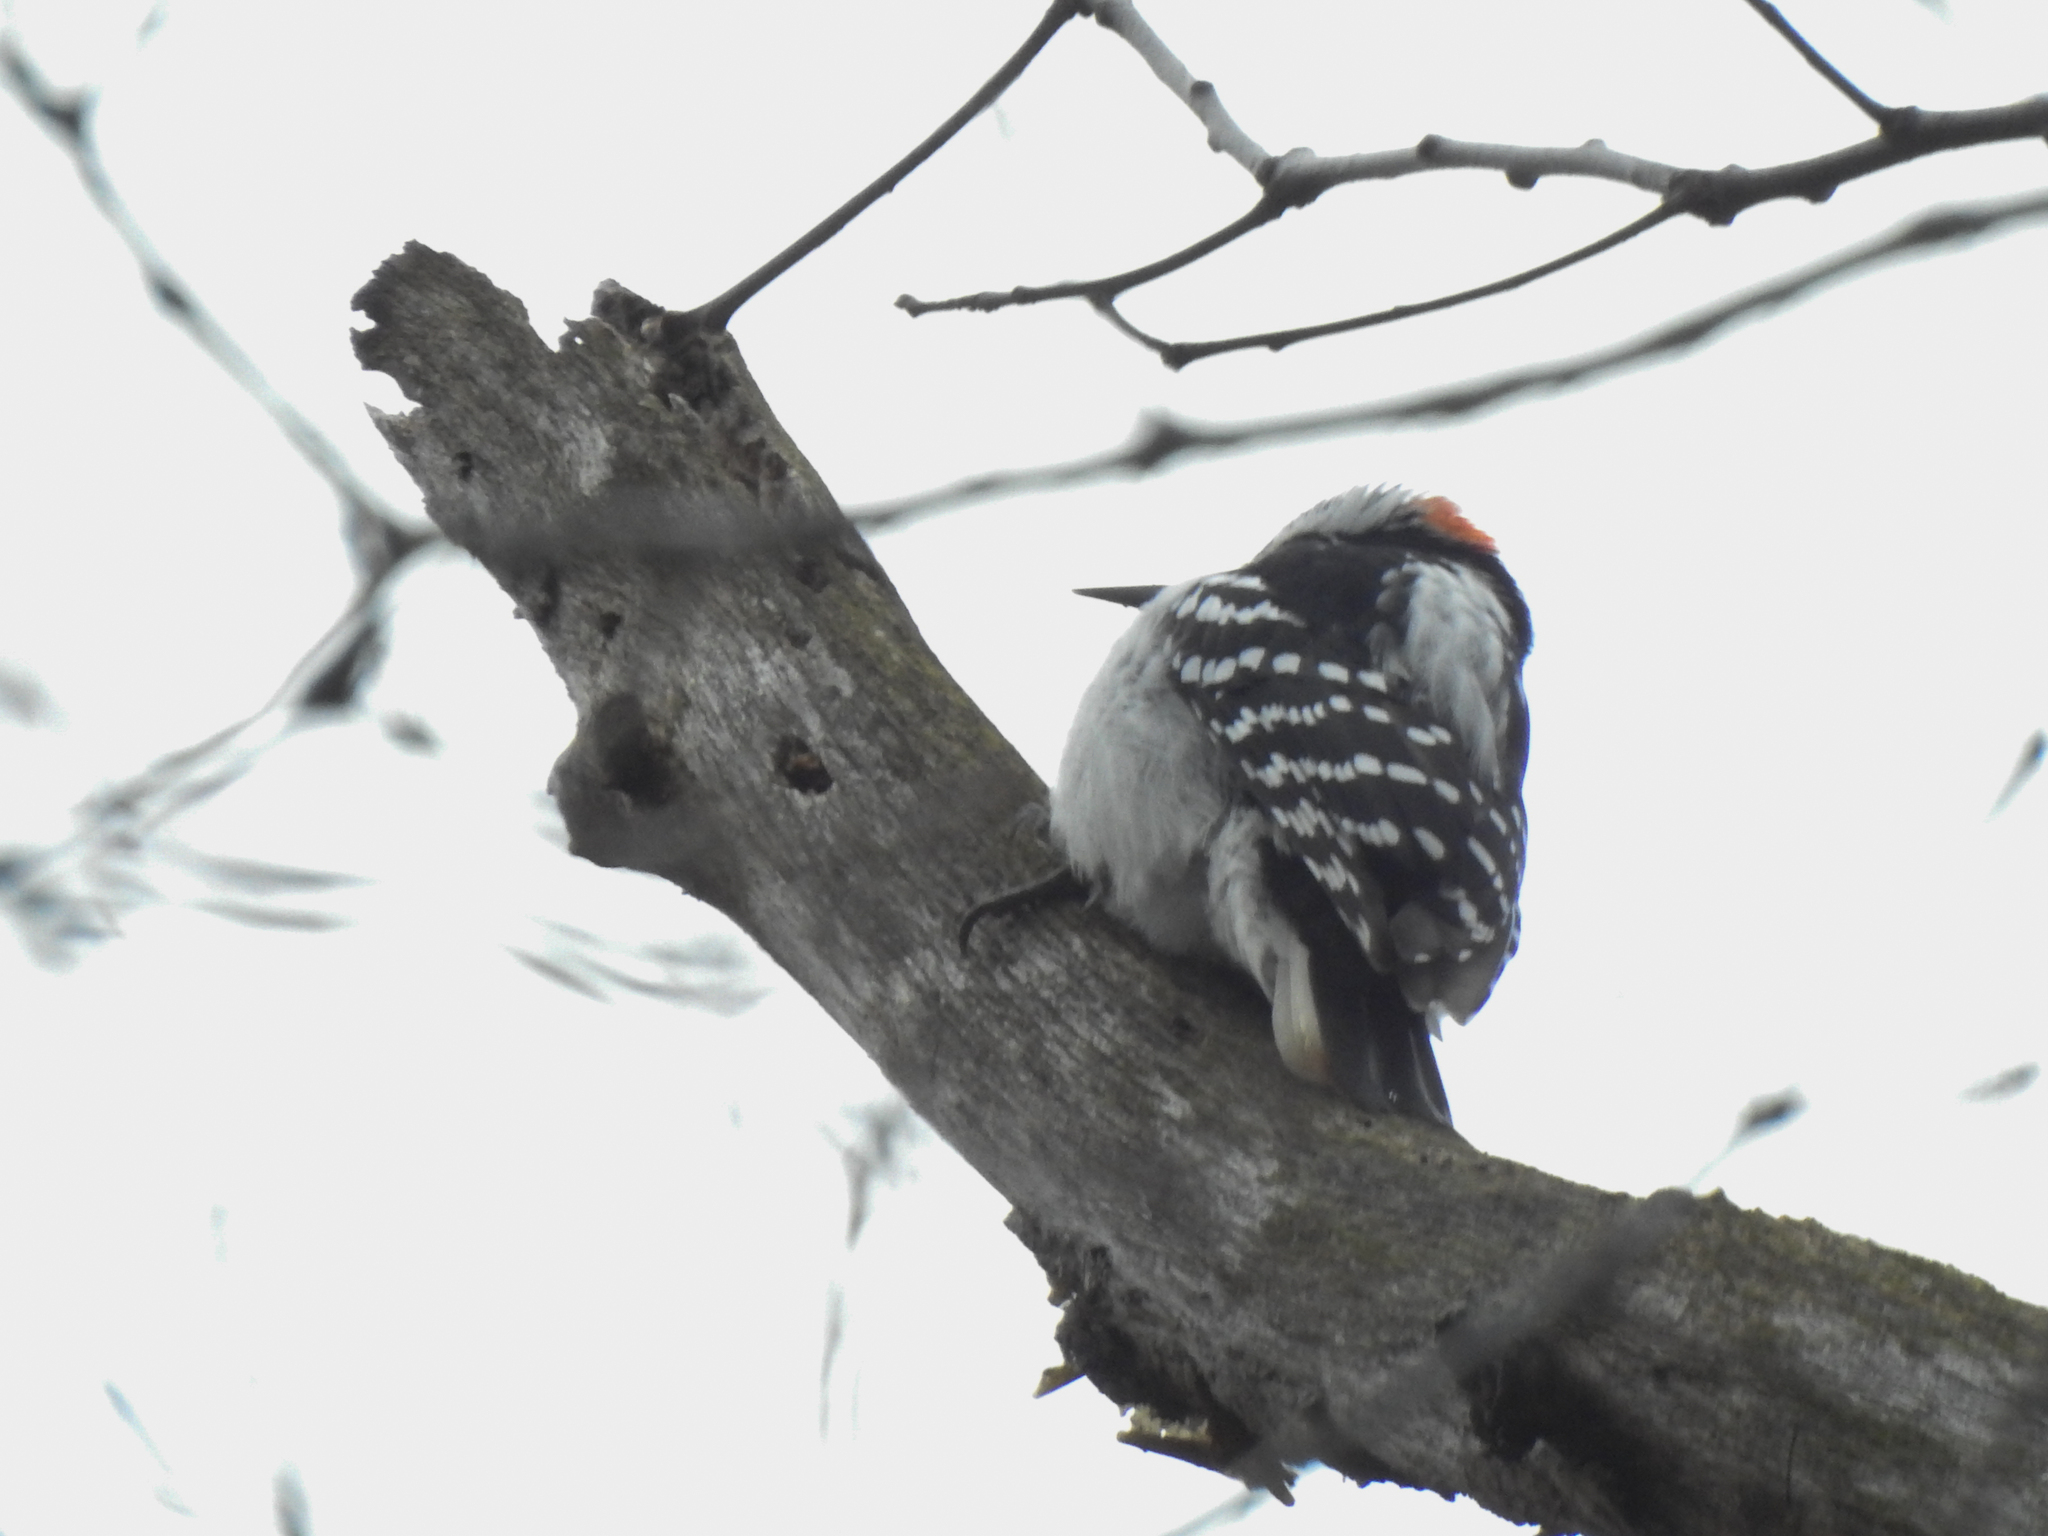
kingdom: Animalia
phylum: Chordata
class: Aves
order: Piciformes
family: Picidae
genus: Dryobates
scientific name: Dryobates pubescens
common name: Downy woodpecker
